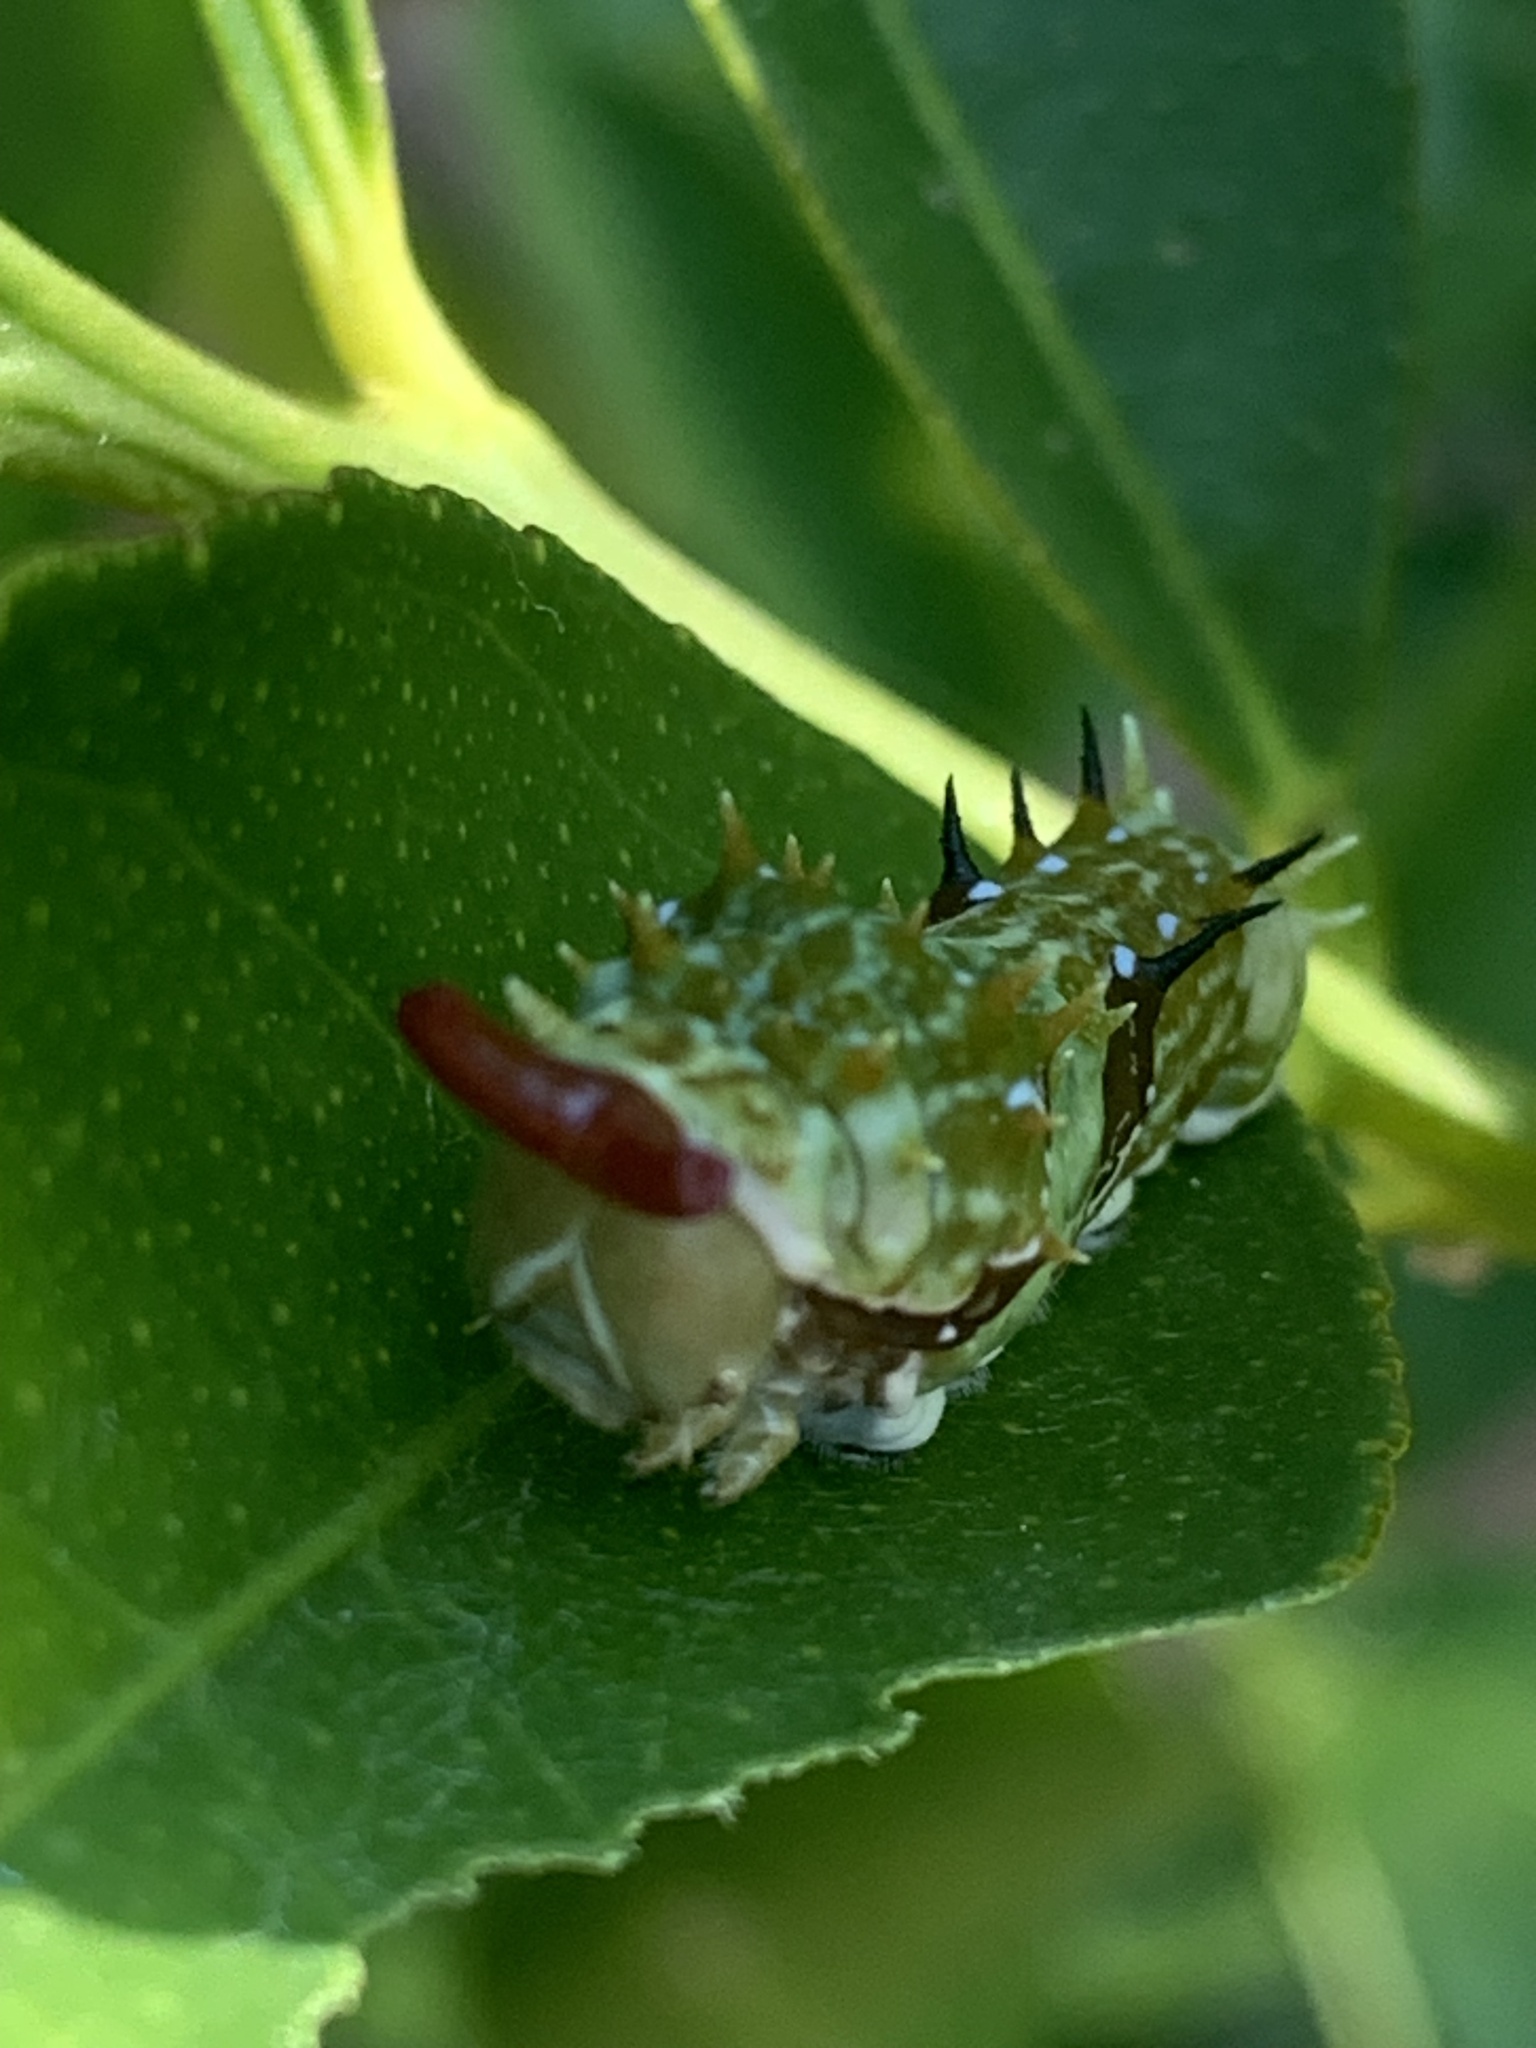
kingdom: Animalia
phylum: Arthropoda
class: Insecta
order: Lepidoptera
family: Papilionidae
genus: Papilio
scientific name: Papilio aegeus
